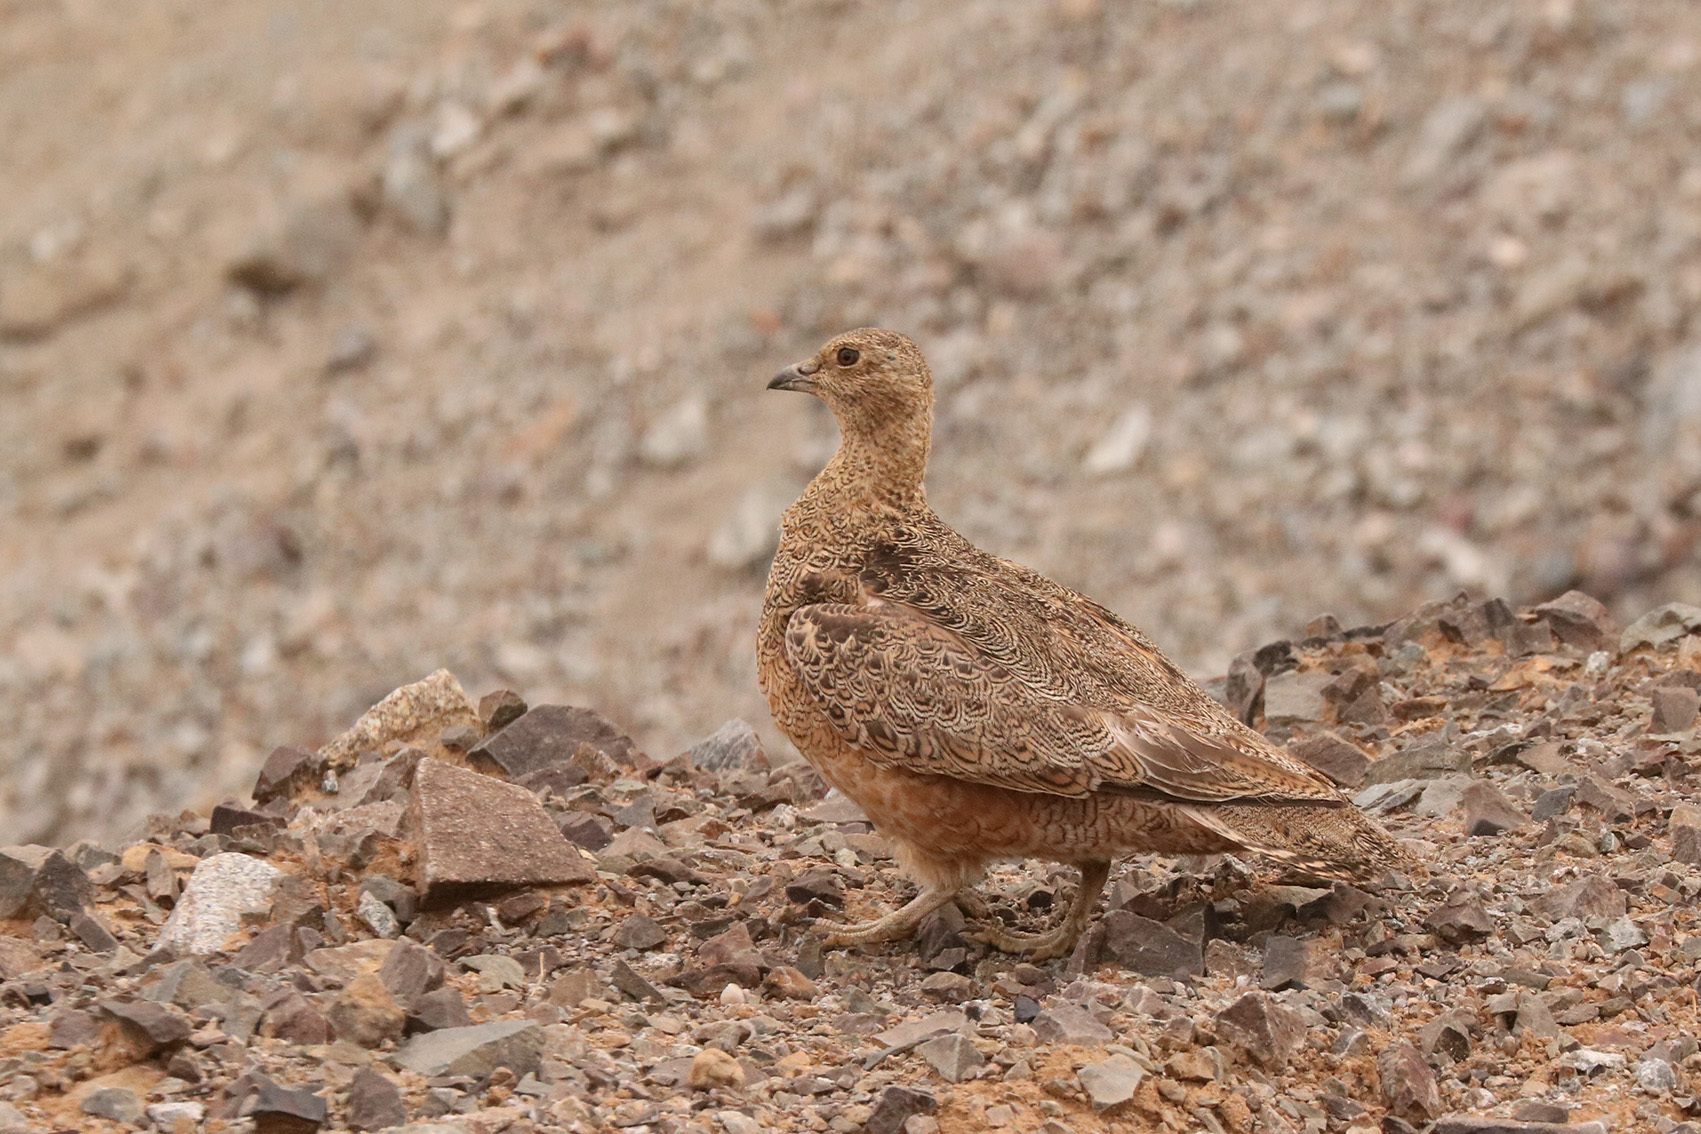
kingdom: Animalia
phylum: Chordata
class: Aves
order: Charadriiformes
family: Thinocoridae
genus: Attagis
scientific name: Attagis gayi
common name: Rufous-bellied seedsnipe
